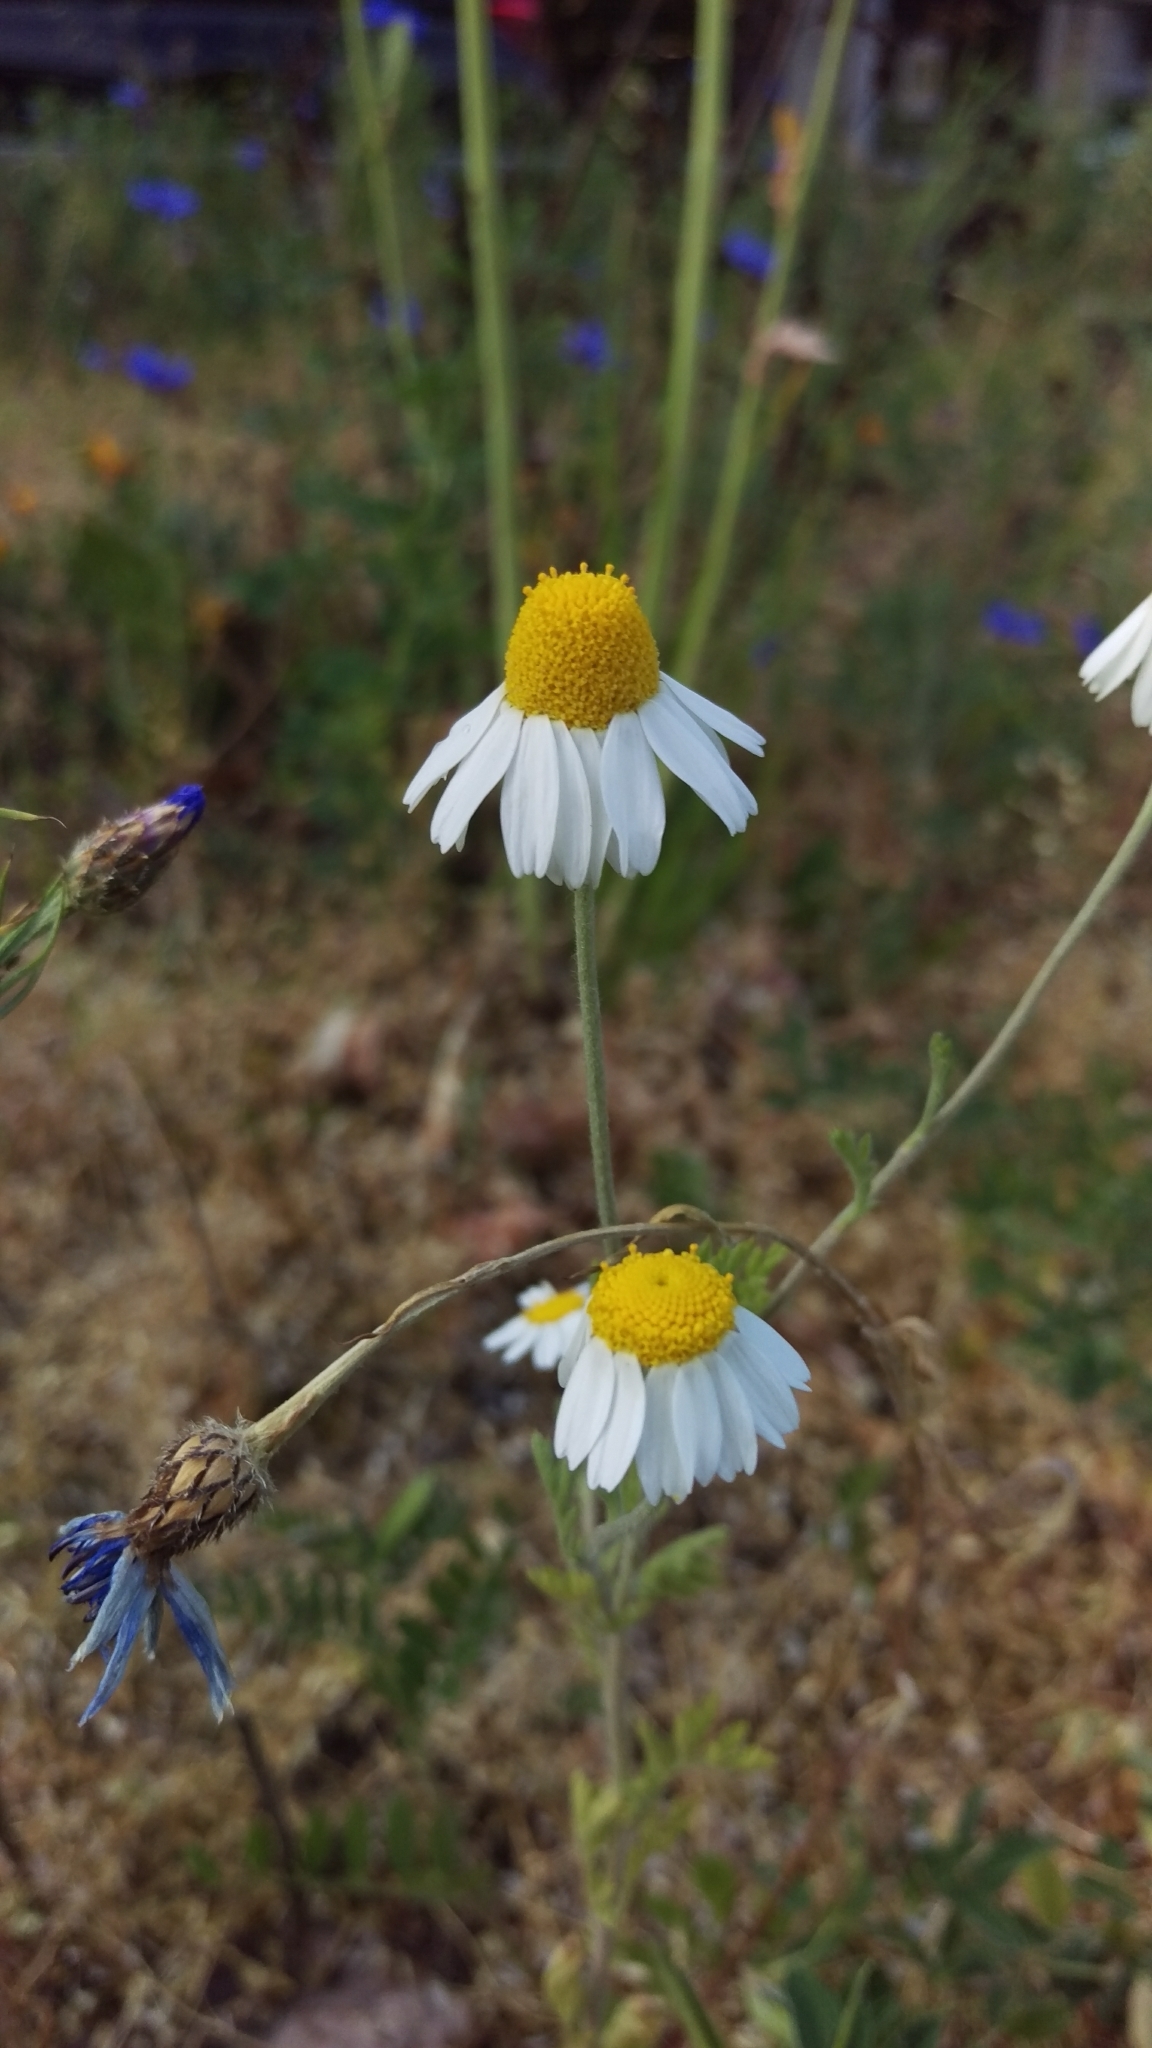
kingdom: Plantae
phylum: Tracheophyta
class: Magnoliopsida
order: Asterales
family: Asteraceae
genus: Matricaria
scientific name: Matricaria chamomilla
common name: Scented mayweed
